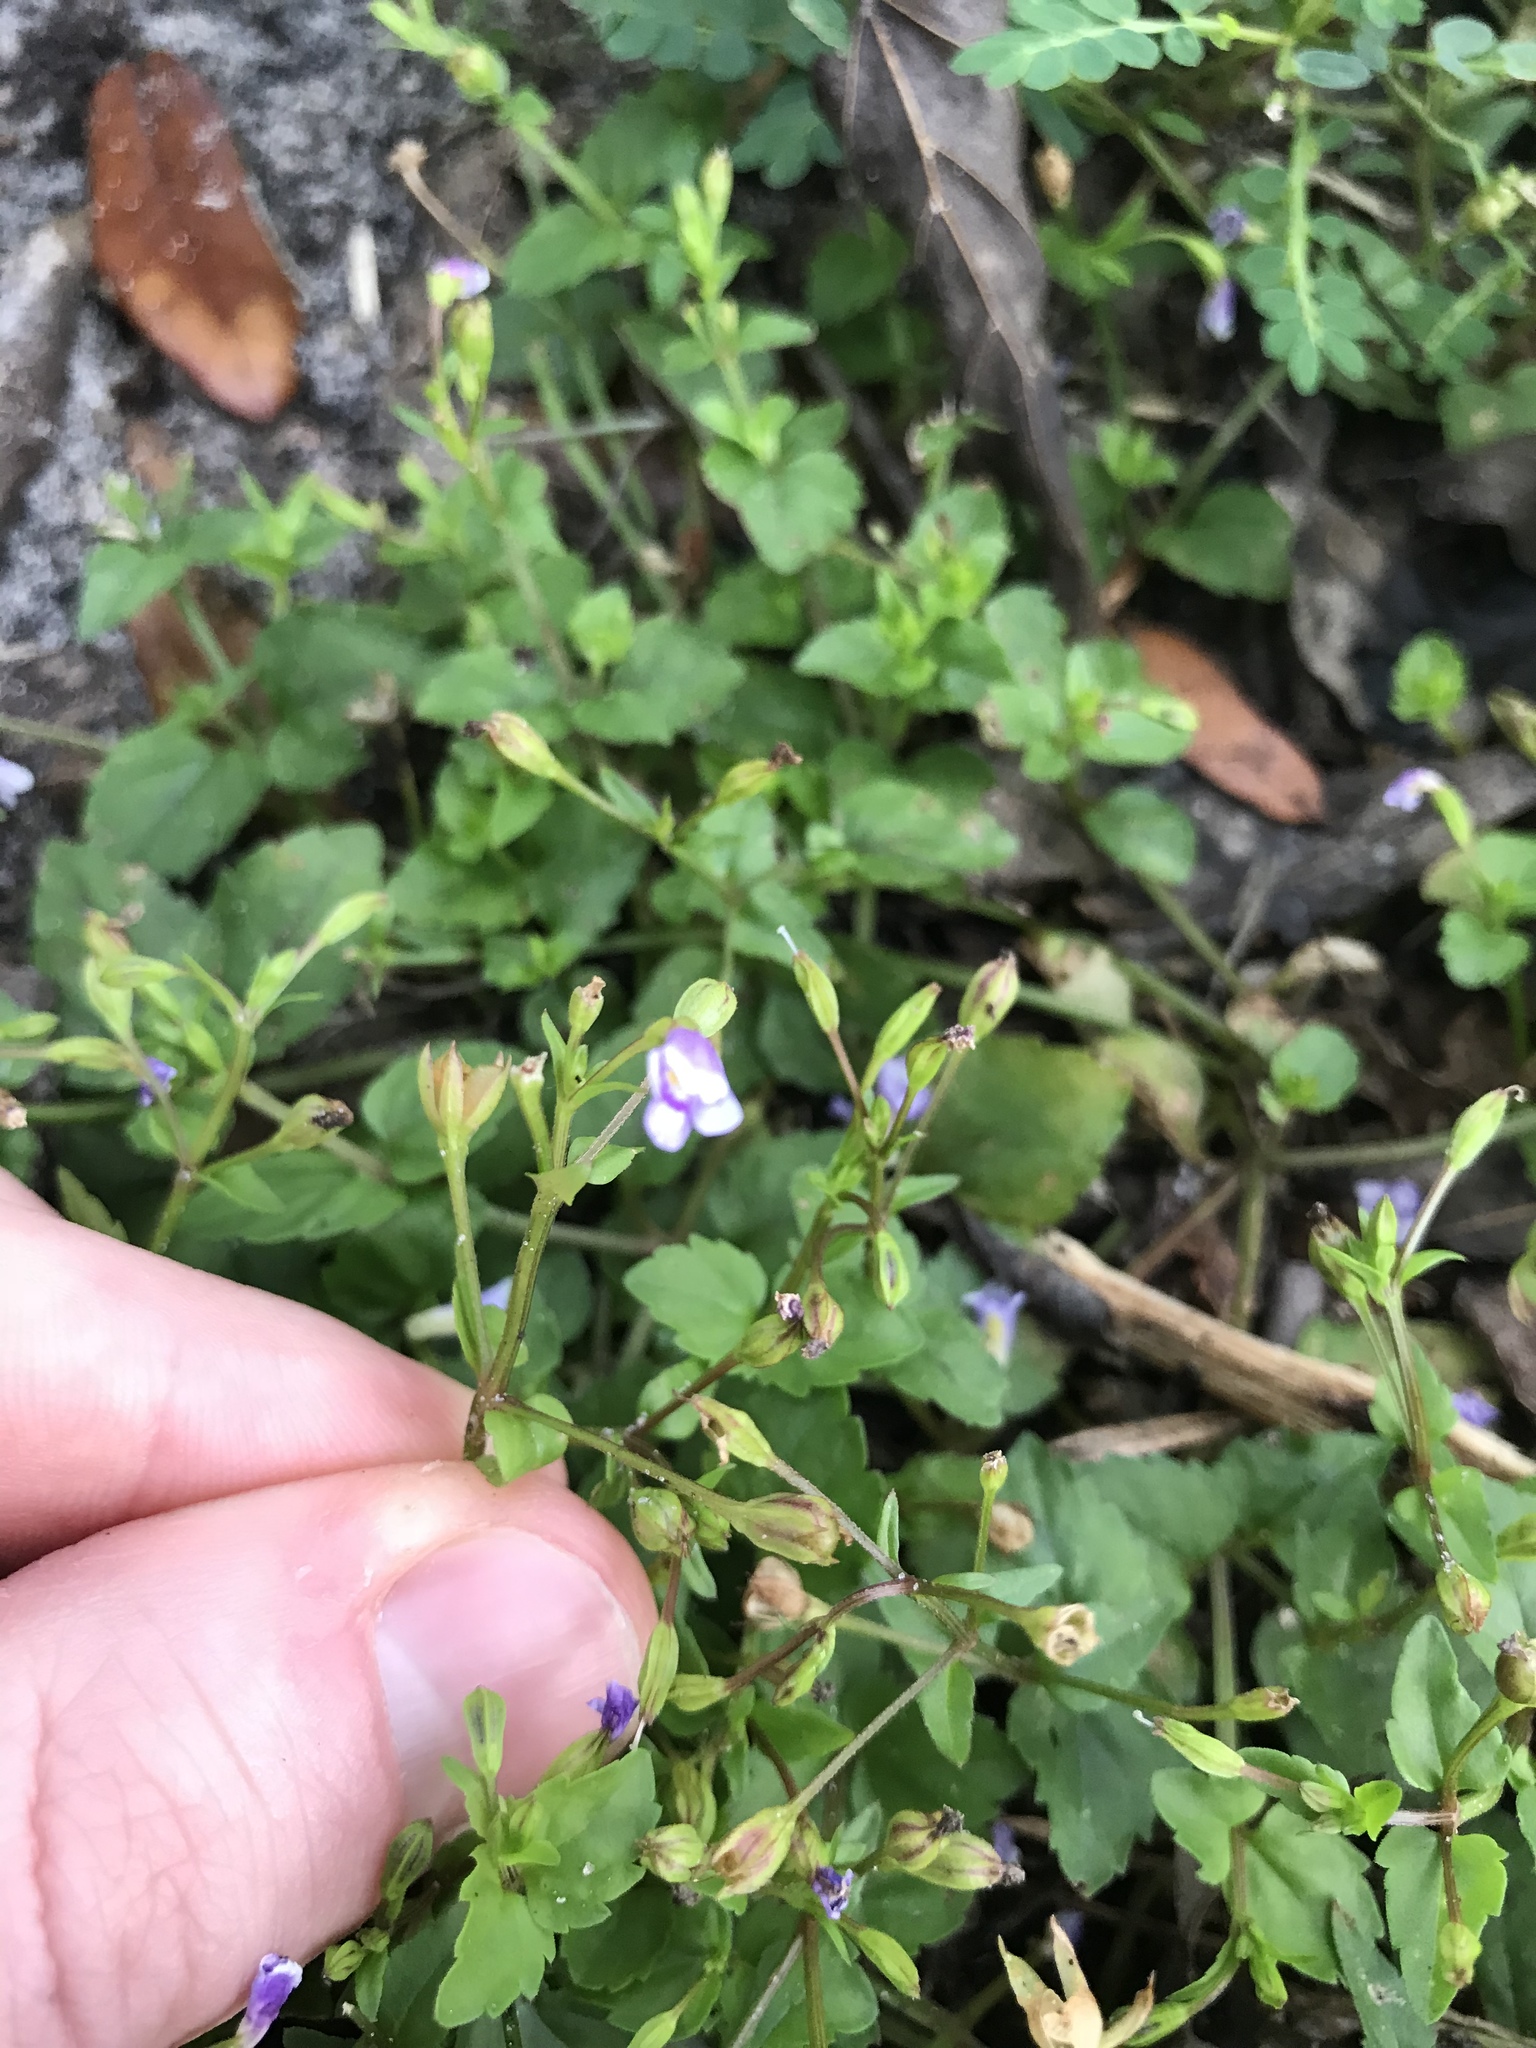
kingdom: Plantae
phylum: Tracheophyta
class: Magnoliopsida
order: Lamiales
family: Linderniaceae
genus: Torenia
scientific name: Torenia crustacea
